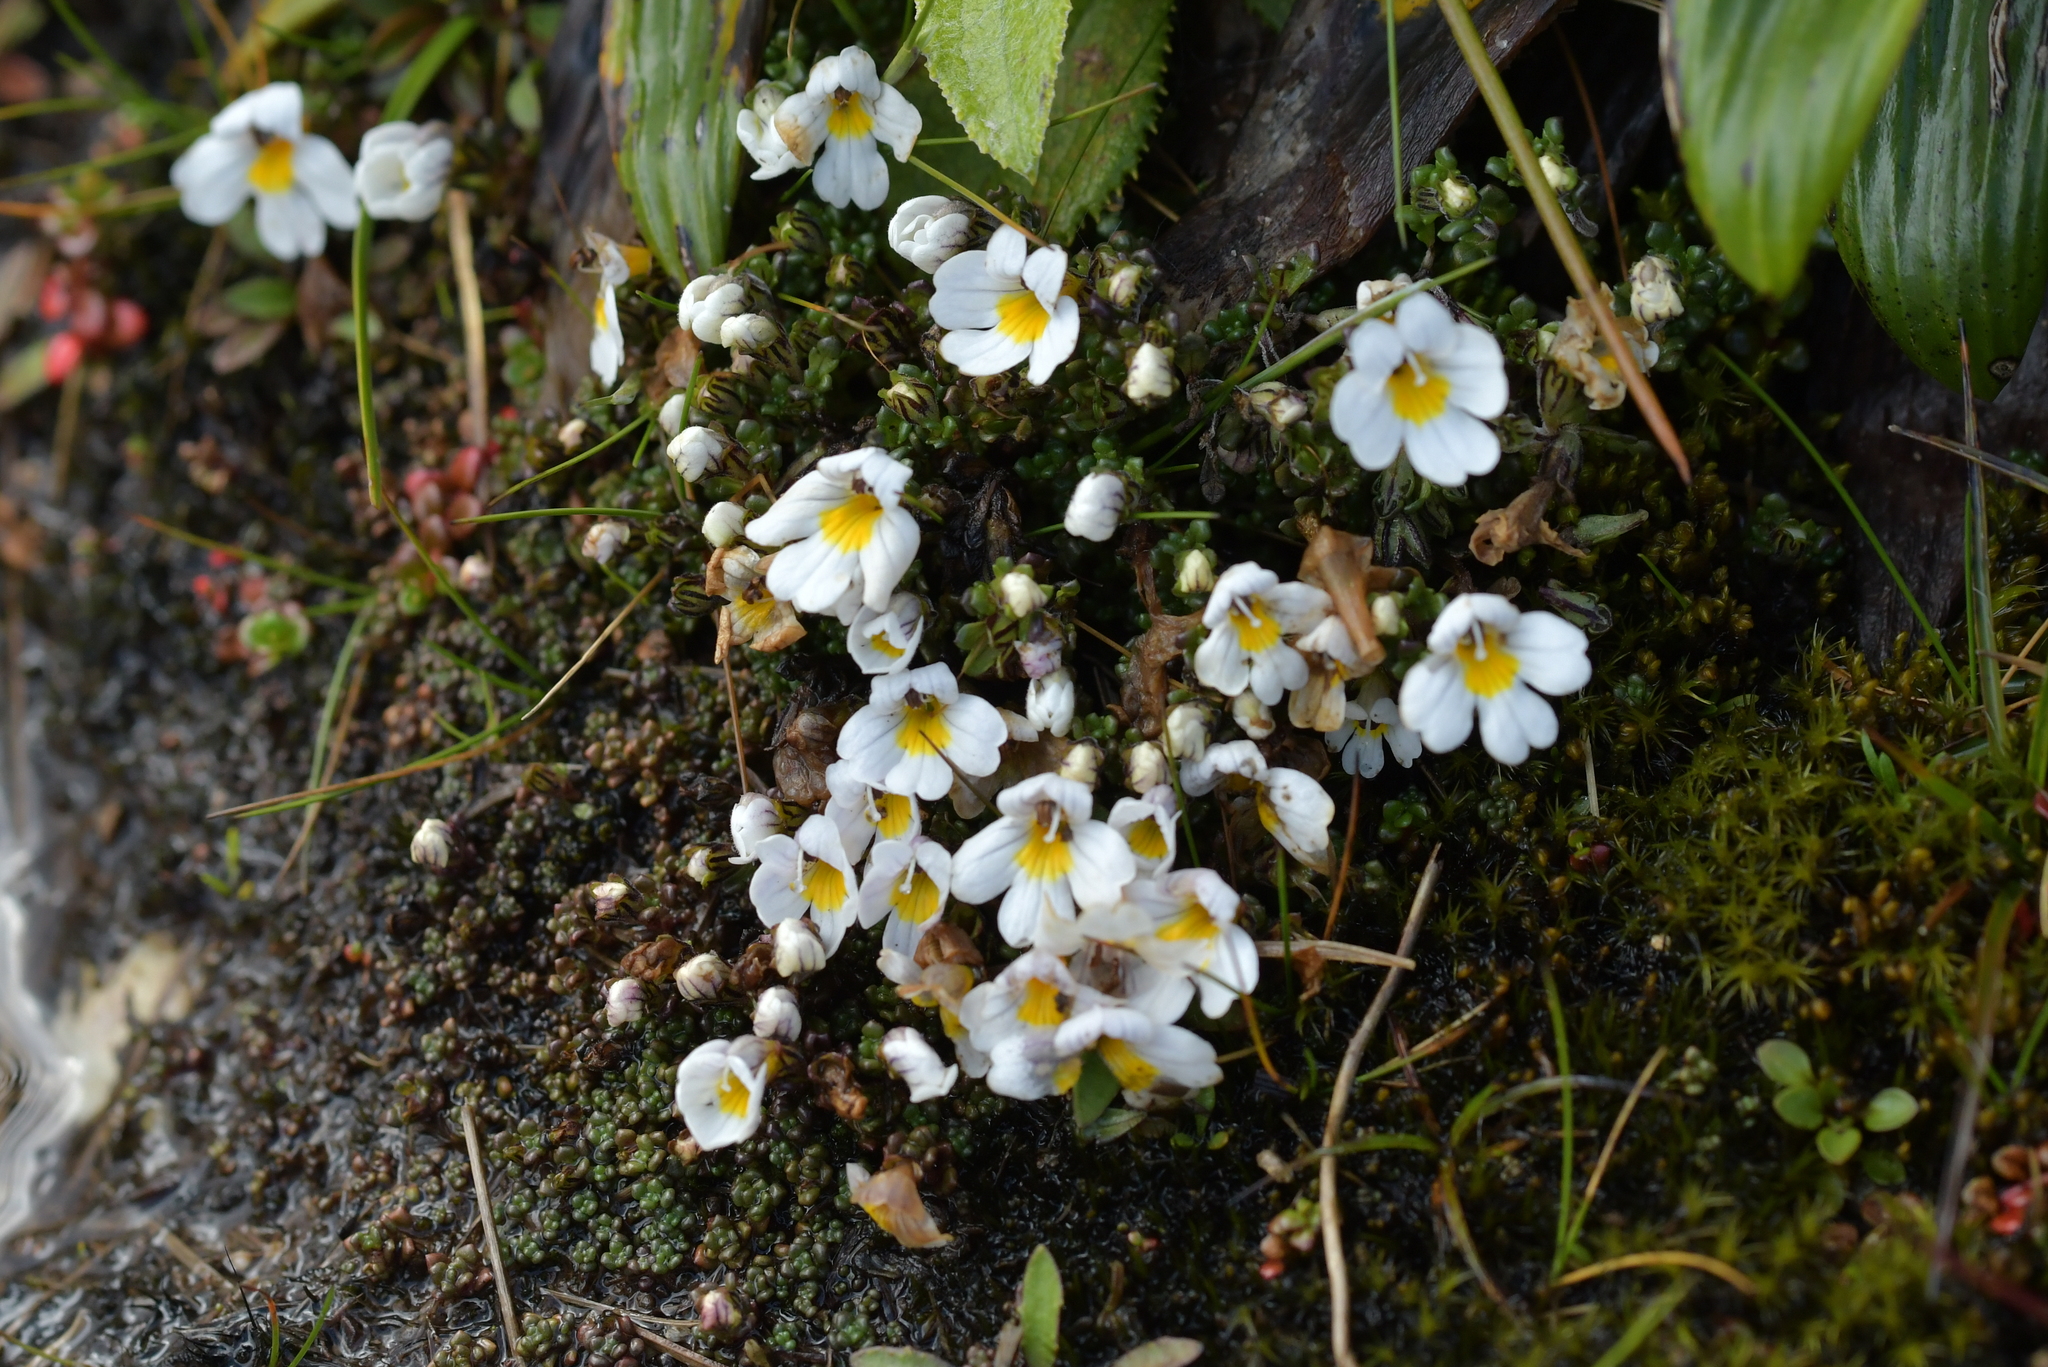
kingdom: Plantae
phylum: Tracheophyta
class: Magnoliopsida
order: Lamiales
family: Orobanchaceae
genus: Euphrasia
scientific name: Euphrasia revoluta
